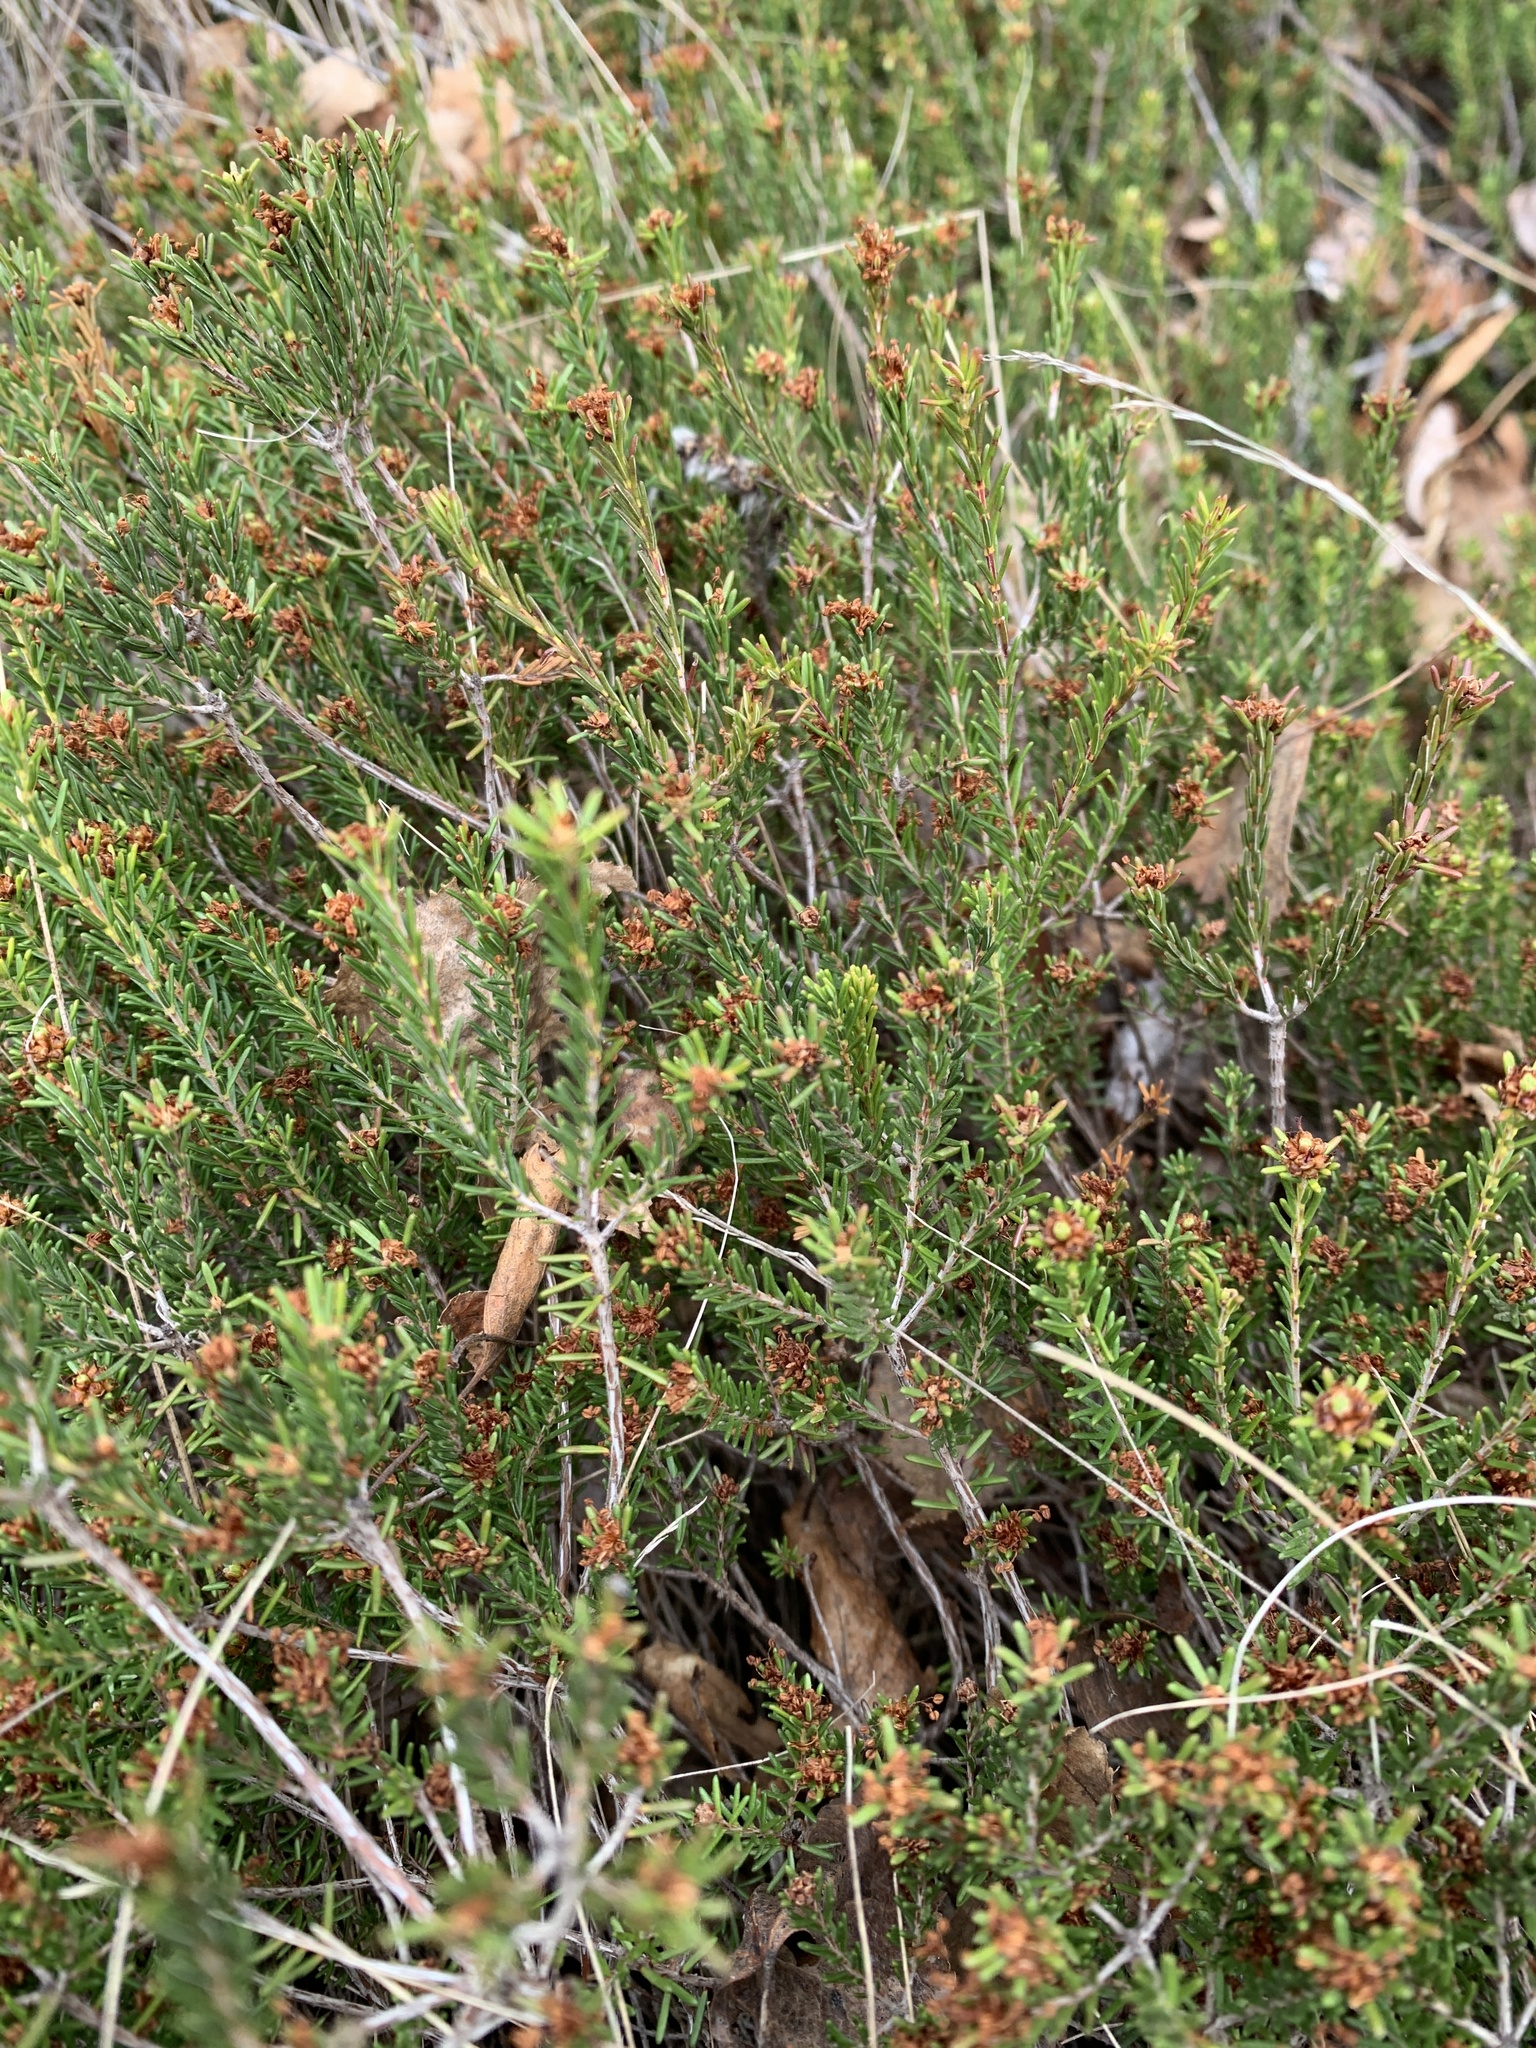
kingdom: Plantae
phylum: Tracheophyta
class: Magnoliopsida
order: Ericales
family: Ericaceae
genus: Corema
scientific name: Corema conradii
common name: Broom-crowberry
